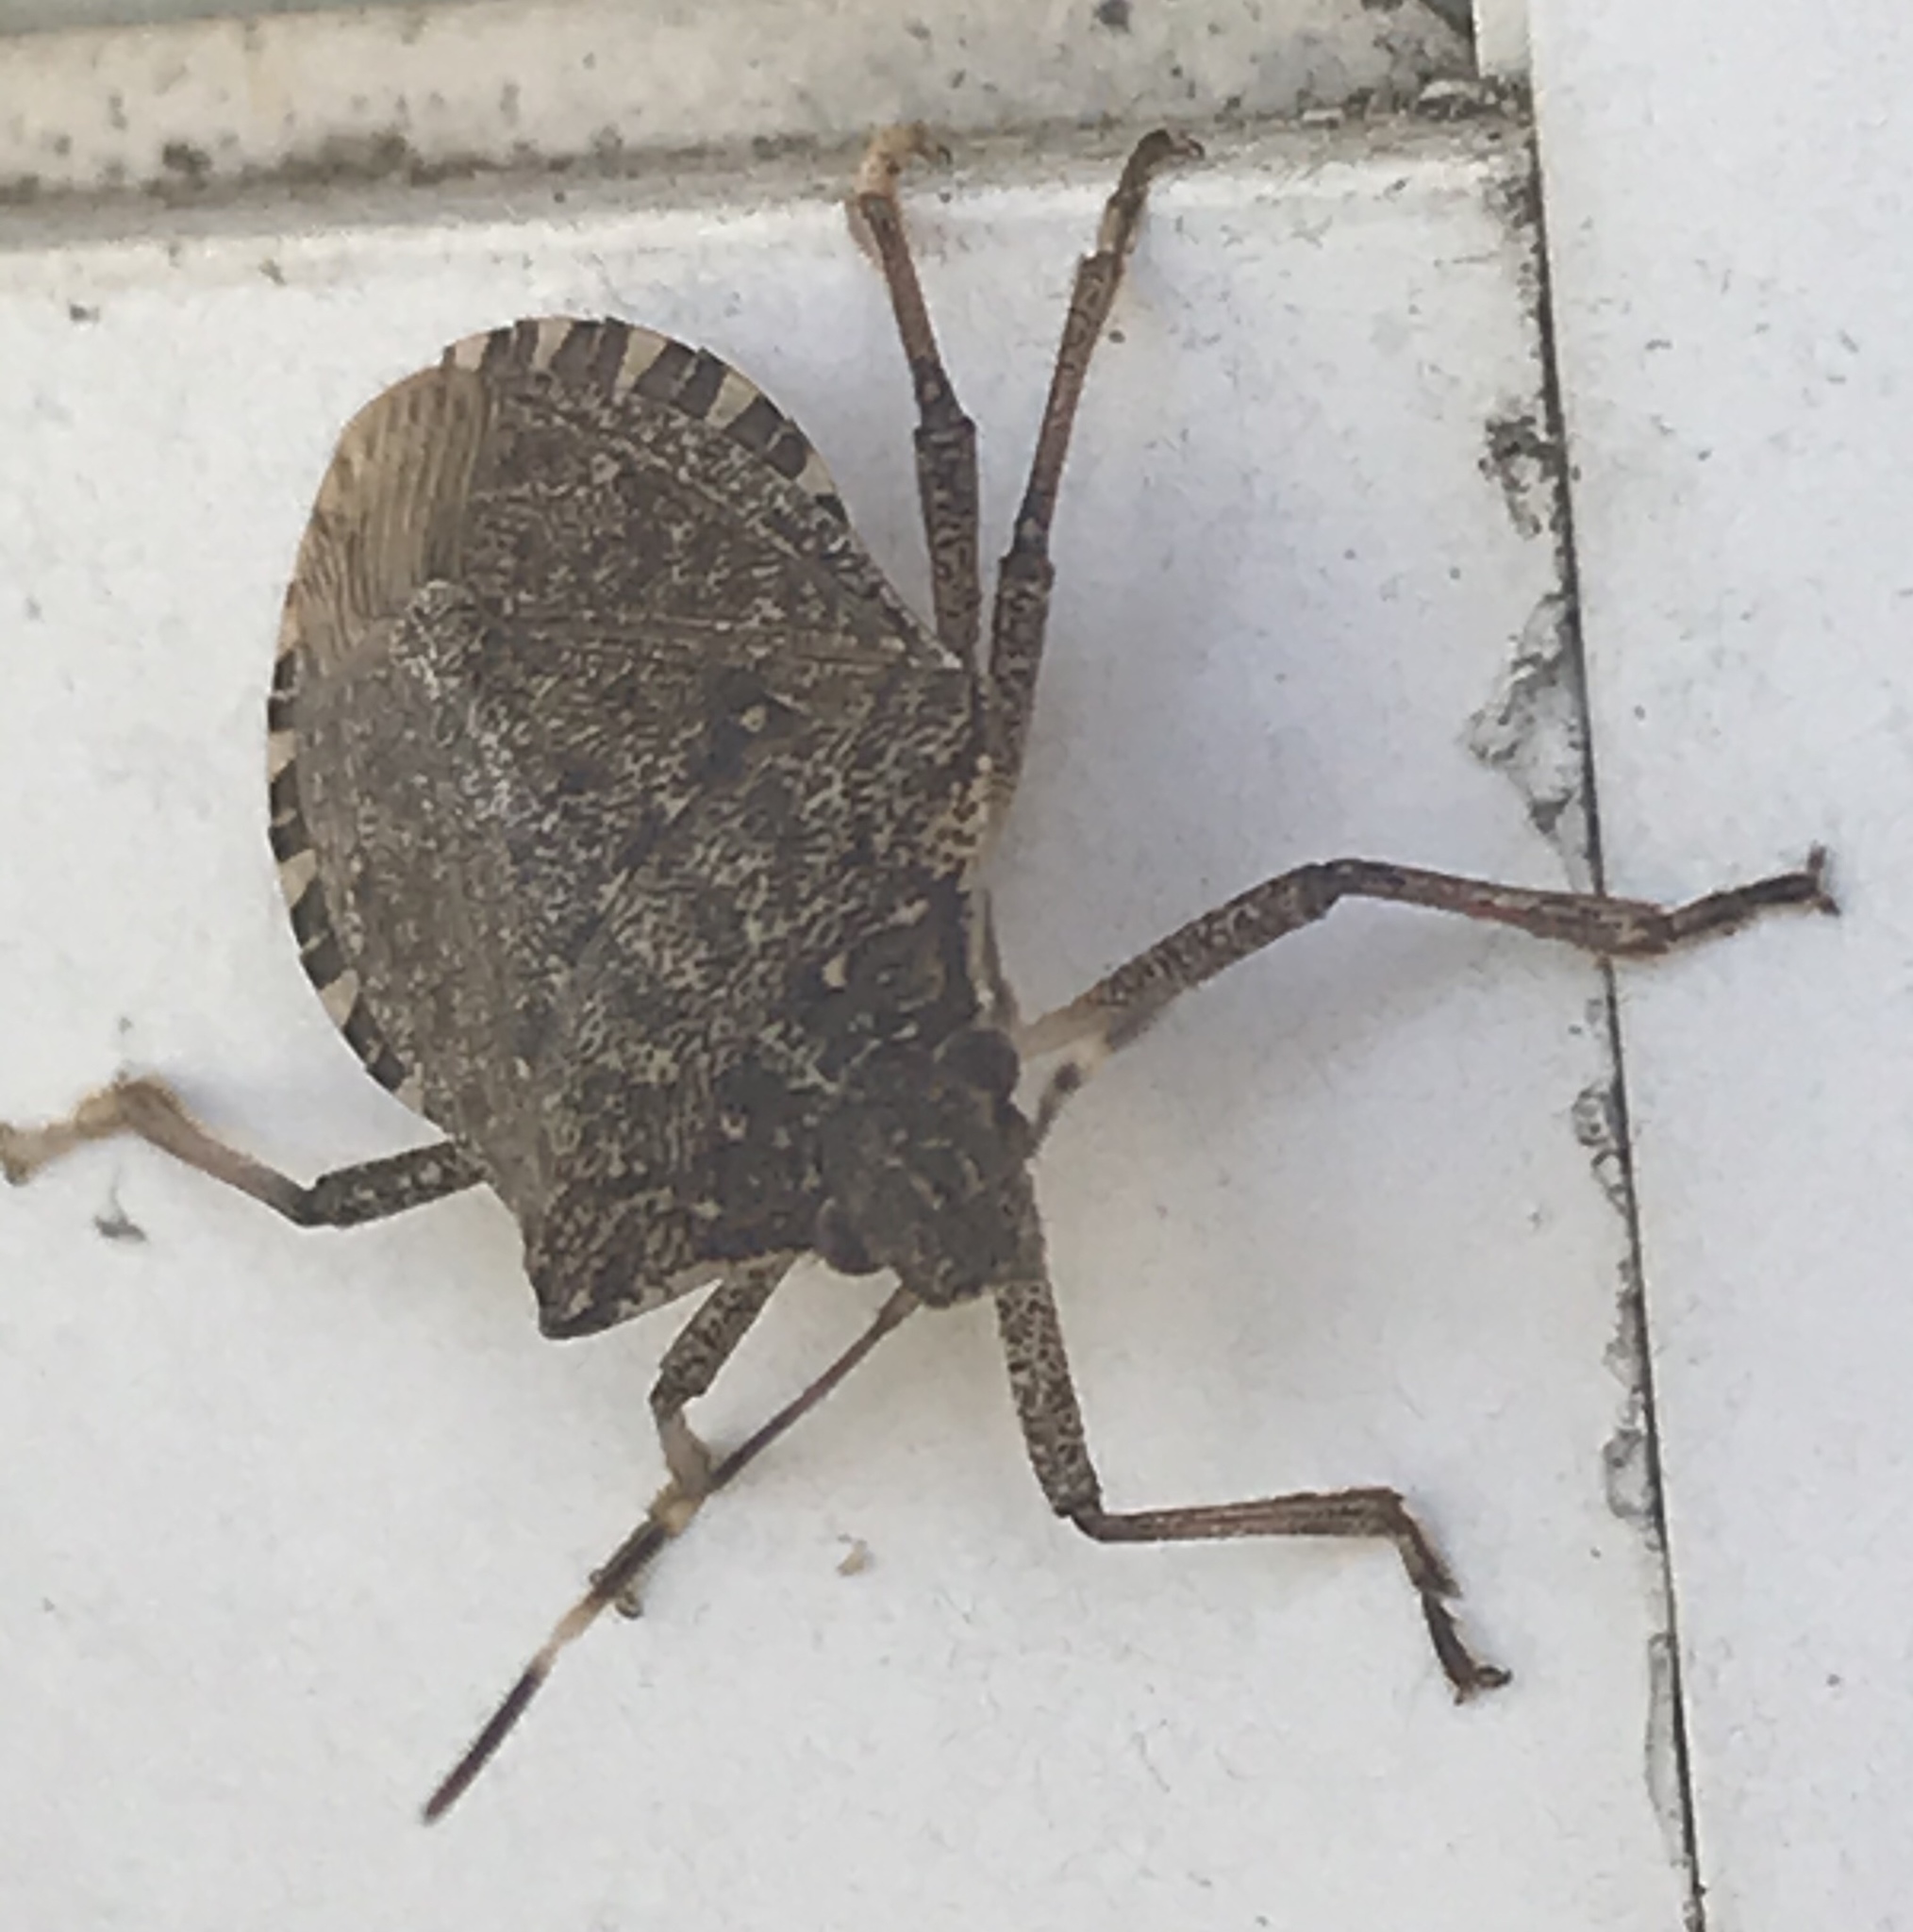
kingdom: Animalia
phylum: Arthropoda
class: Insecta
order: Hemiptera
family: Pentatomidae
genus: Halyomorpha
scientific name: Halyomorpha halys
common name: Brown marmorated stink bug
